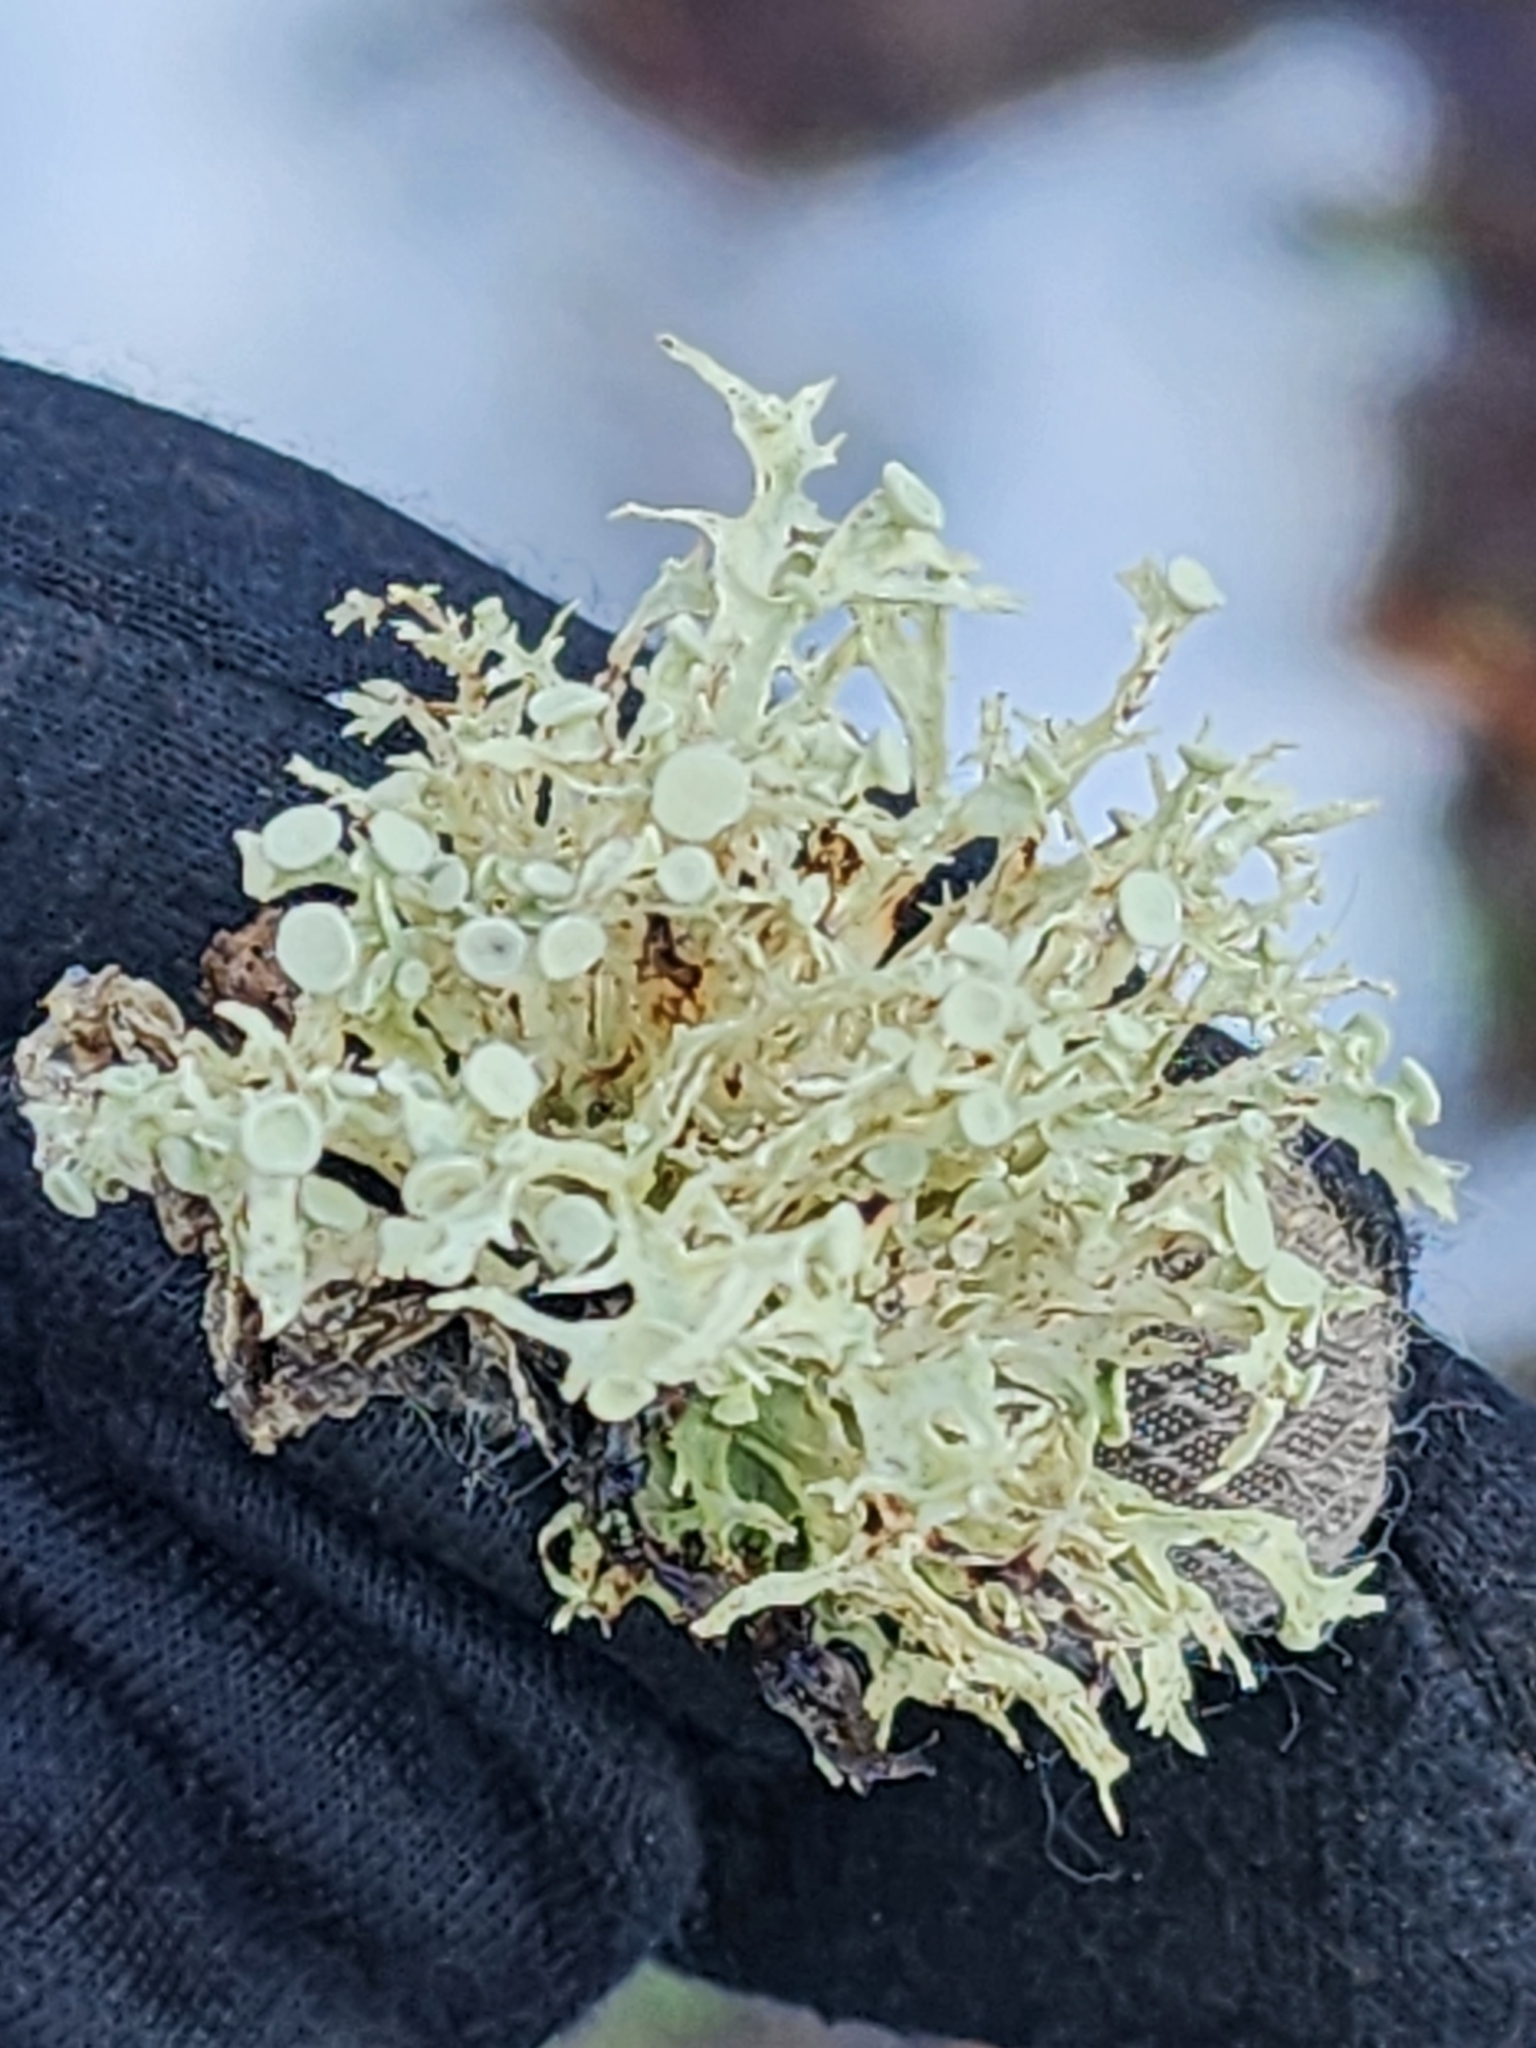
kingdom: Fungi
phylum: Ascomycota
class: Lecanoromycetes
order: Lecanorales
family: Ramalinaceae
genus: Ramalina
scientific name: Ramalina americana
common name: Sinewed bush lichen
